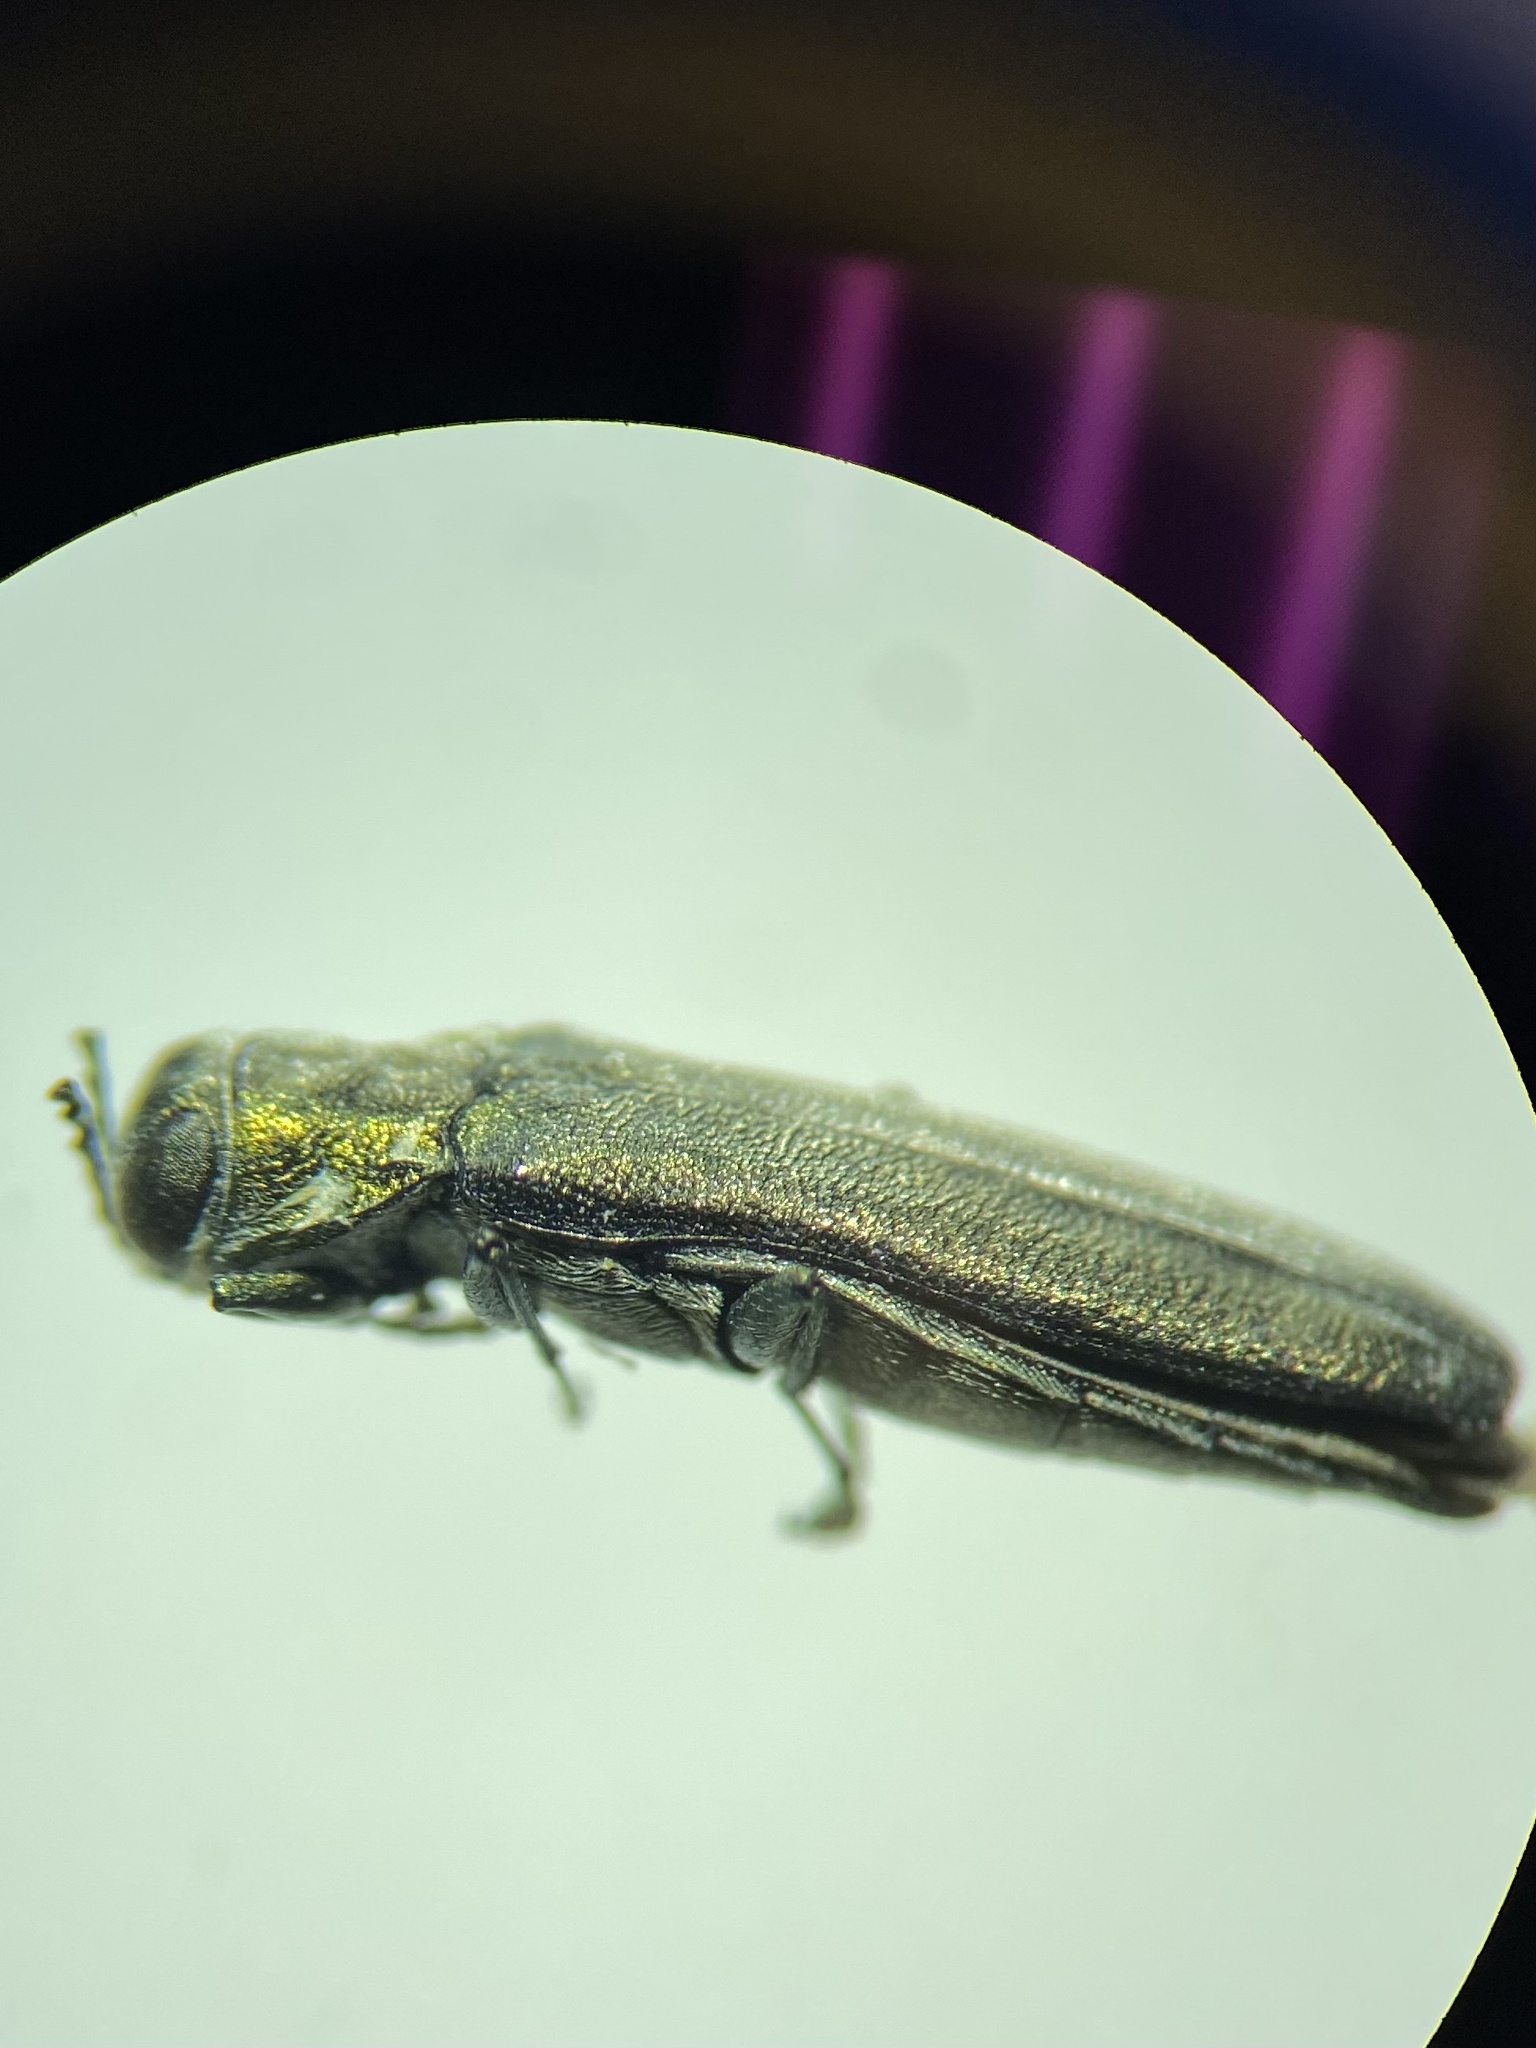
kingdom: Animalia
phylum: Arthropoda
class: Insecta
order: Coleoptera
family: Buprestidae
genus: Agrilus
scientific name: Agrilus atricornis
